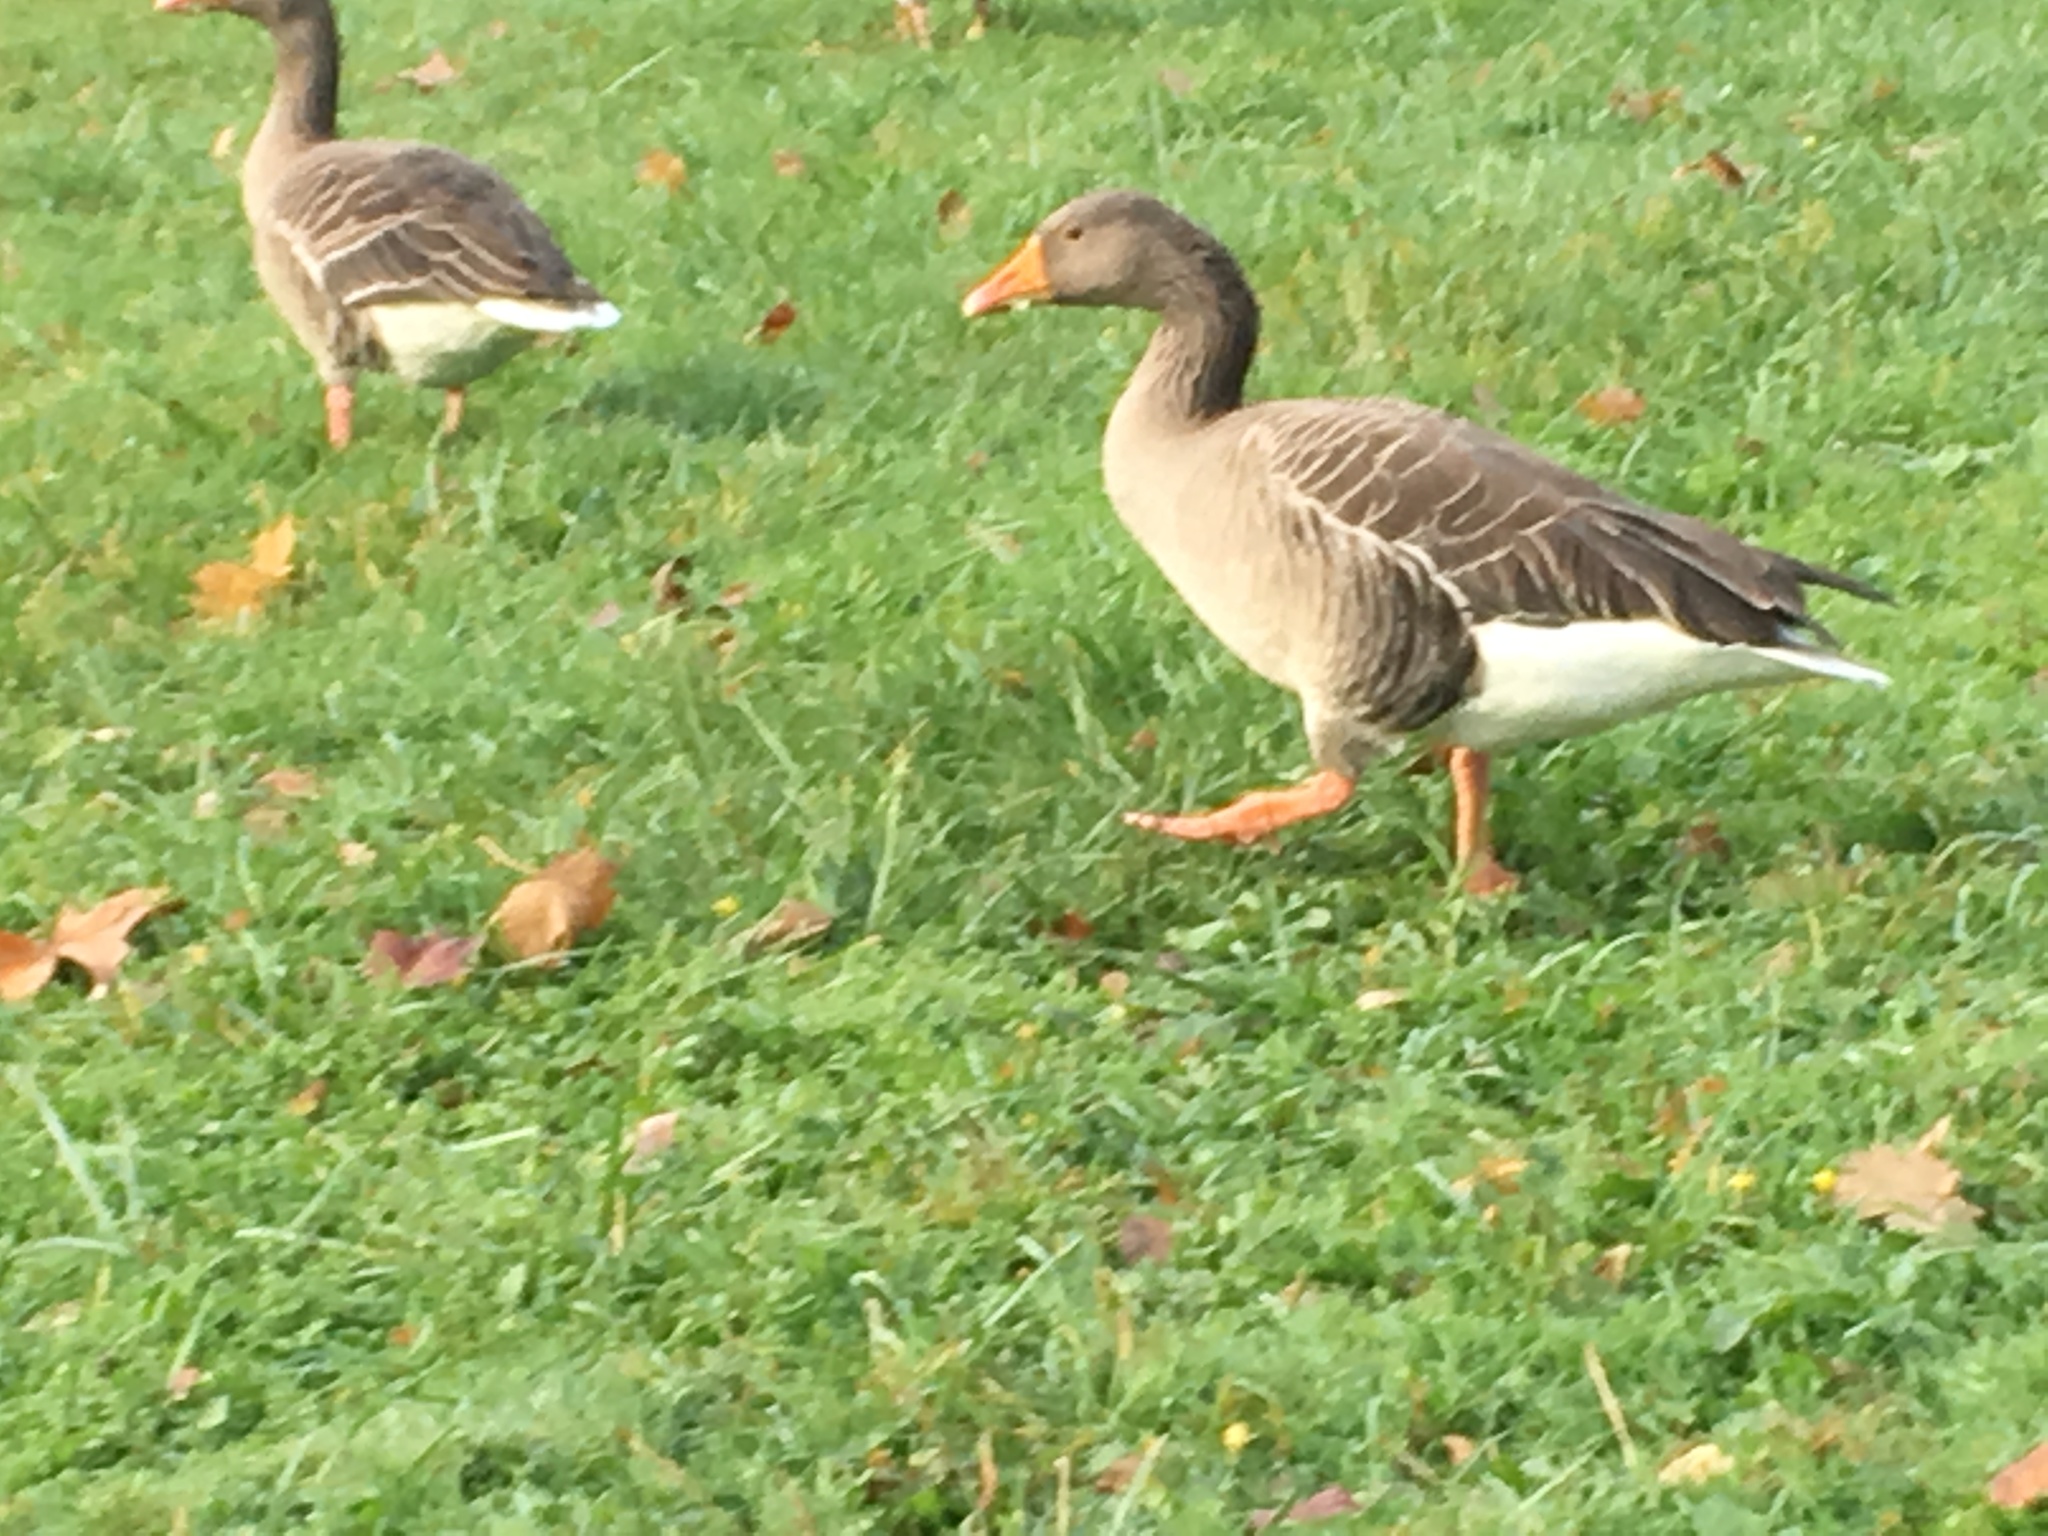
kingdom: Animalia
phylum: Chordata
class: Aves
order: Anseriformes
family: Anatidae
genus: Anser
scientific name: Anser anser
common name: Greylag goose
